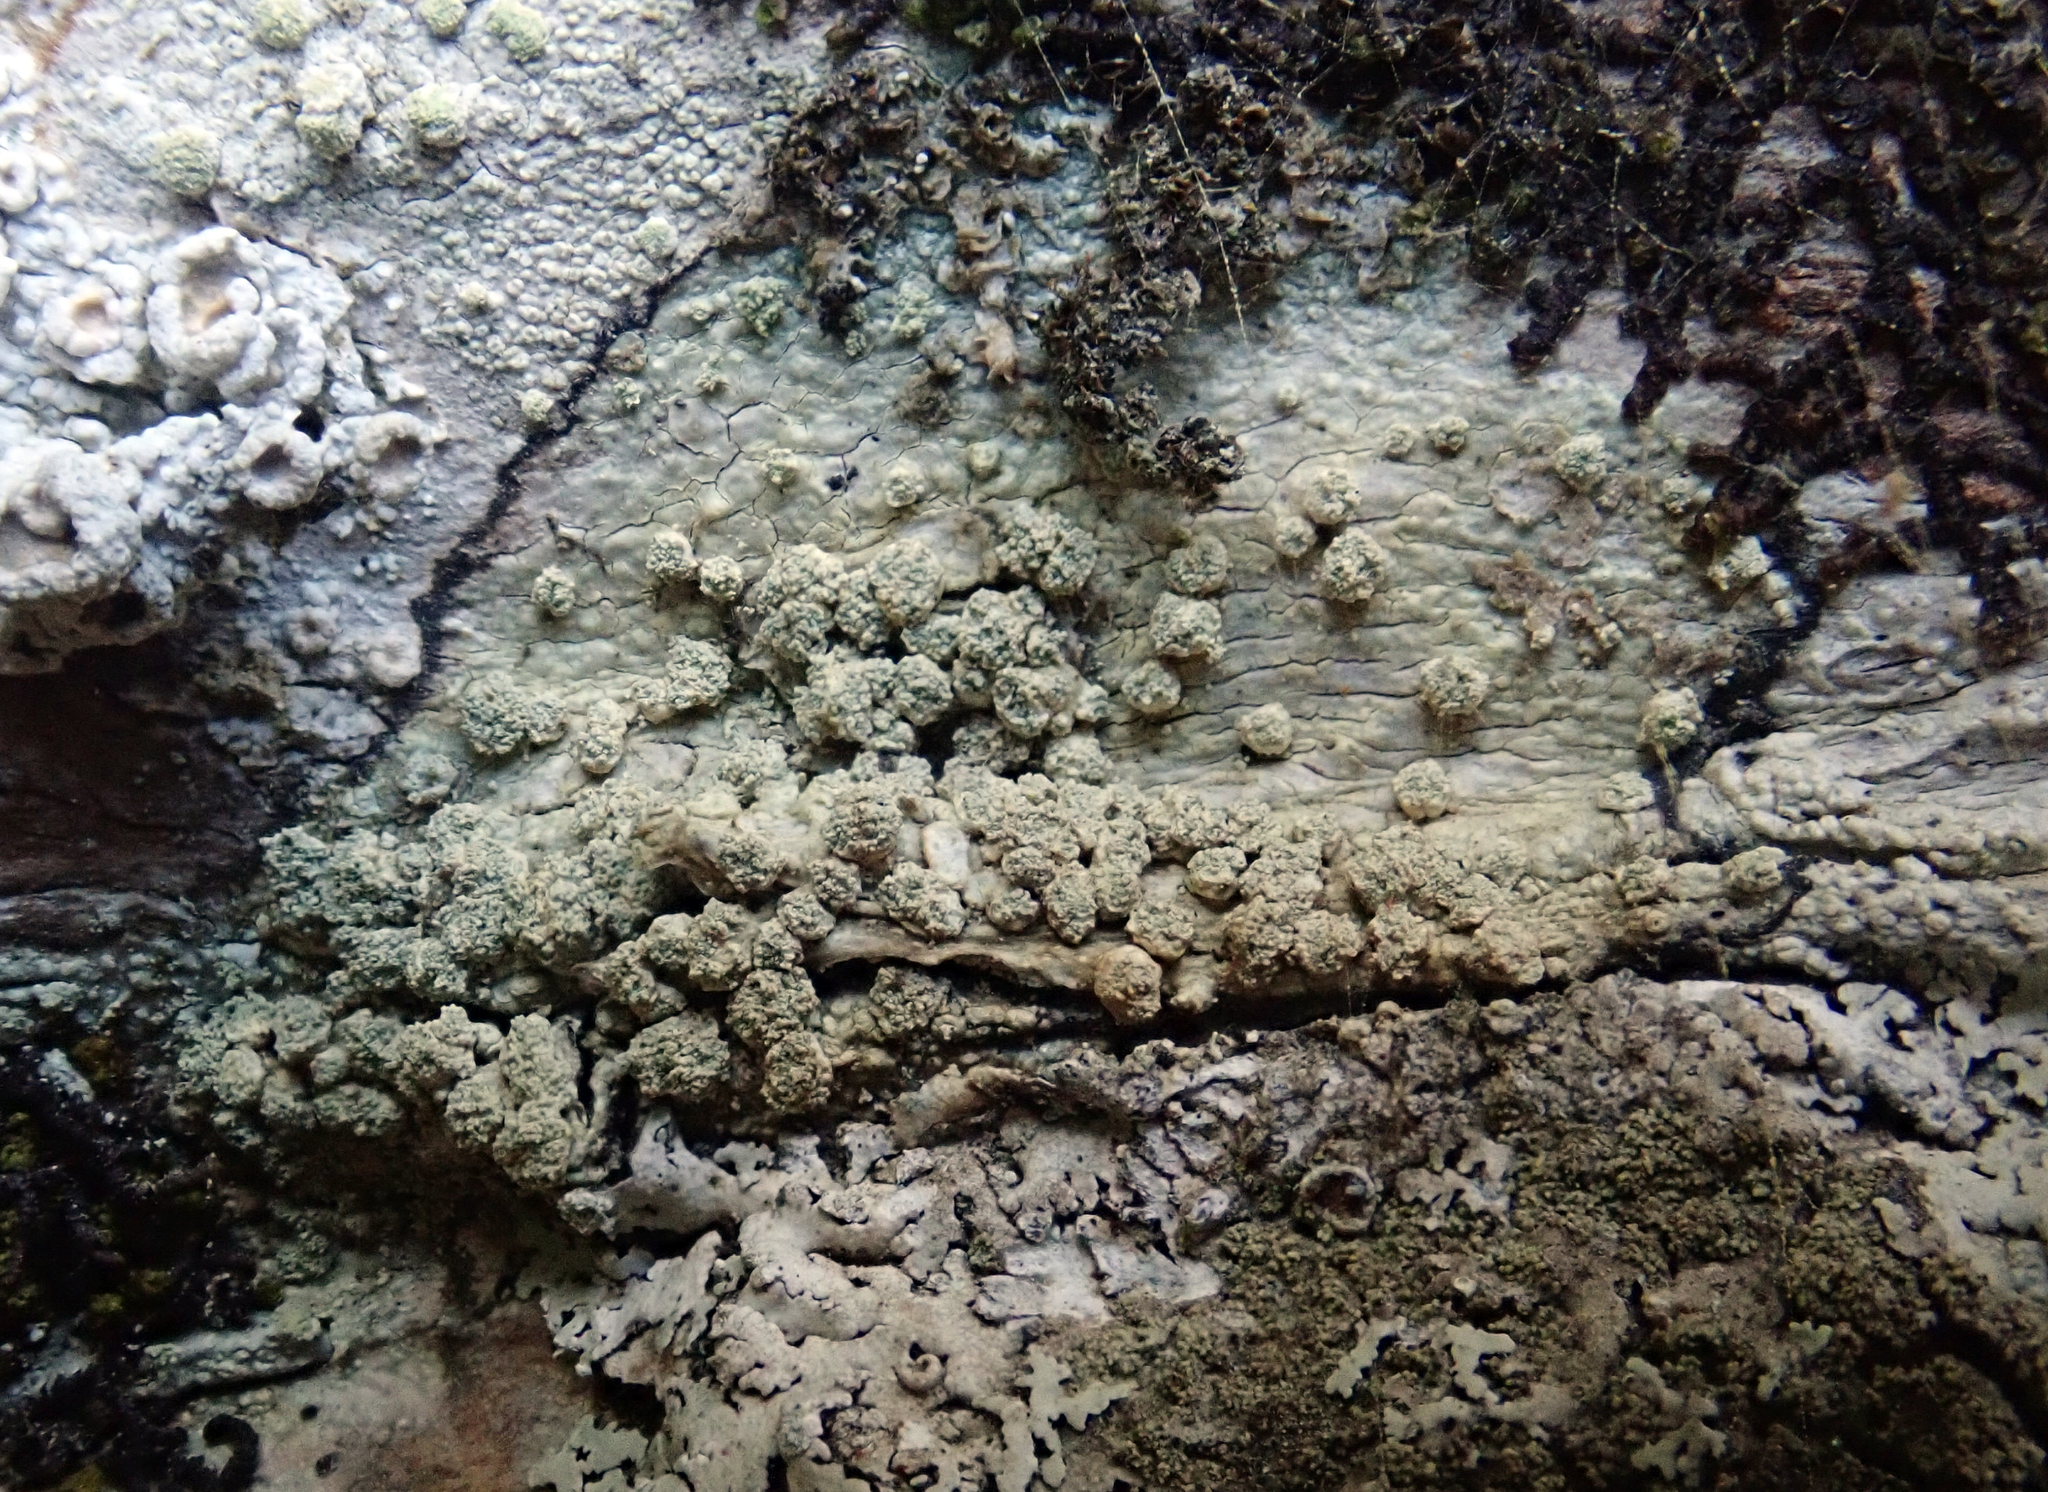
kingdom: Fungi
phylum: Ascomycota
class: Lecanoromycetes
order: Pertusariales
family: Pertusariaceae
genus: Pertusaria
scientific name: Pertusaria puffina
